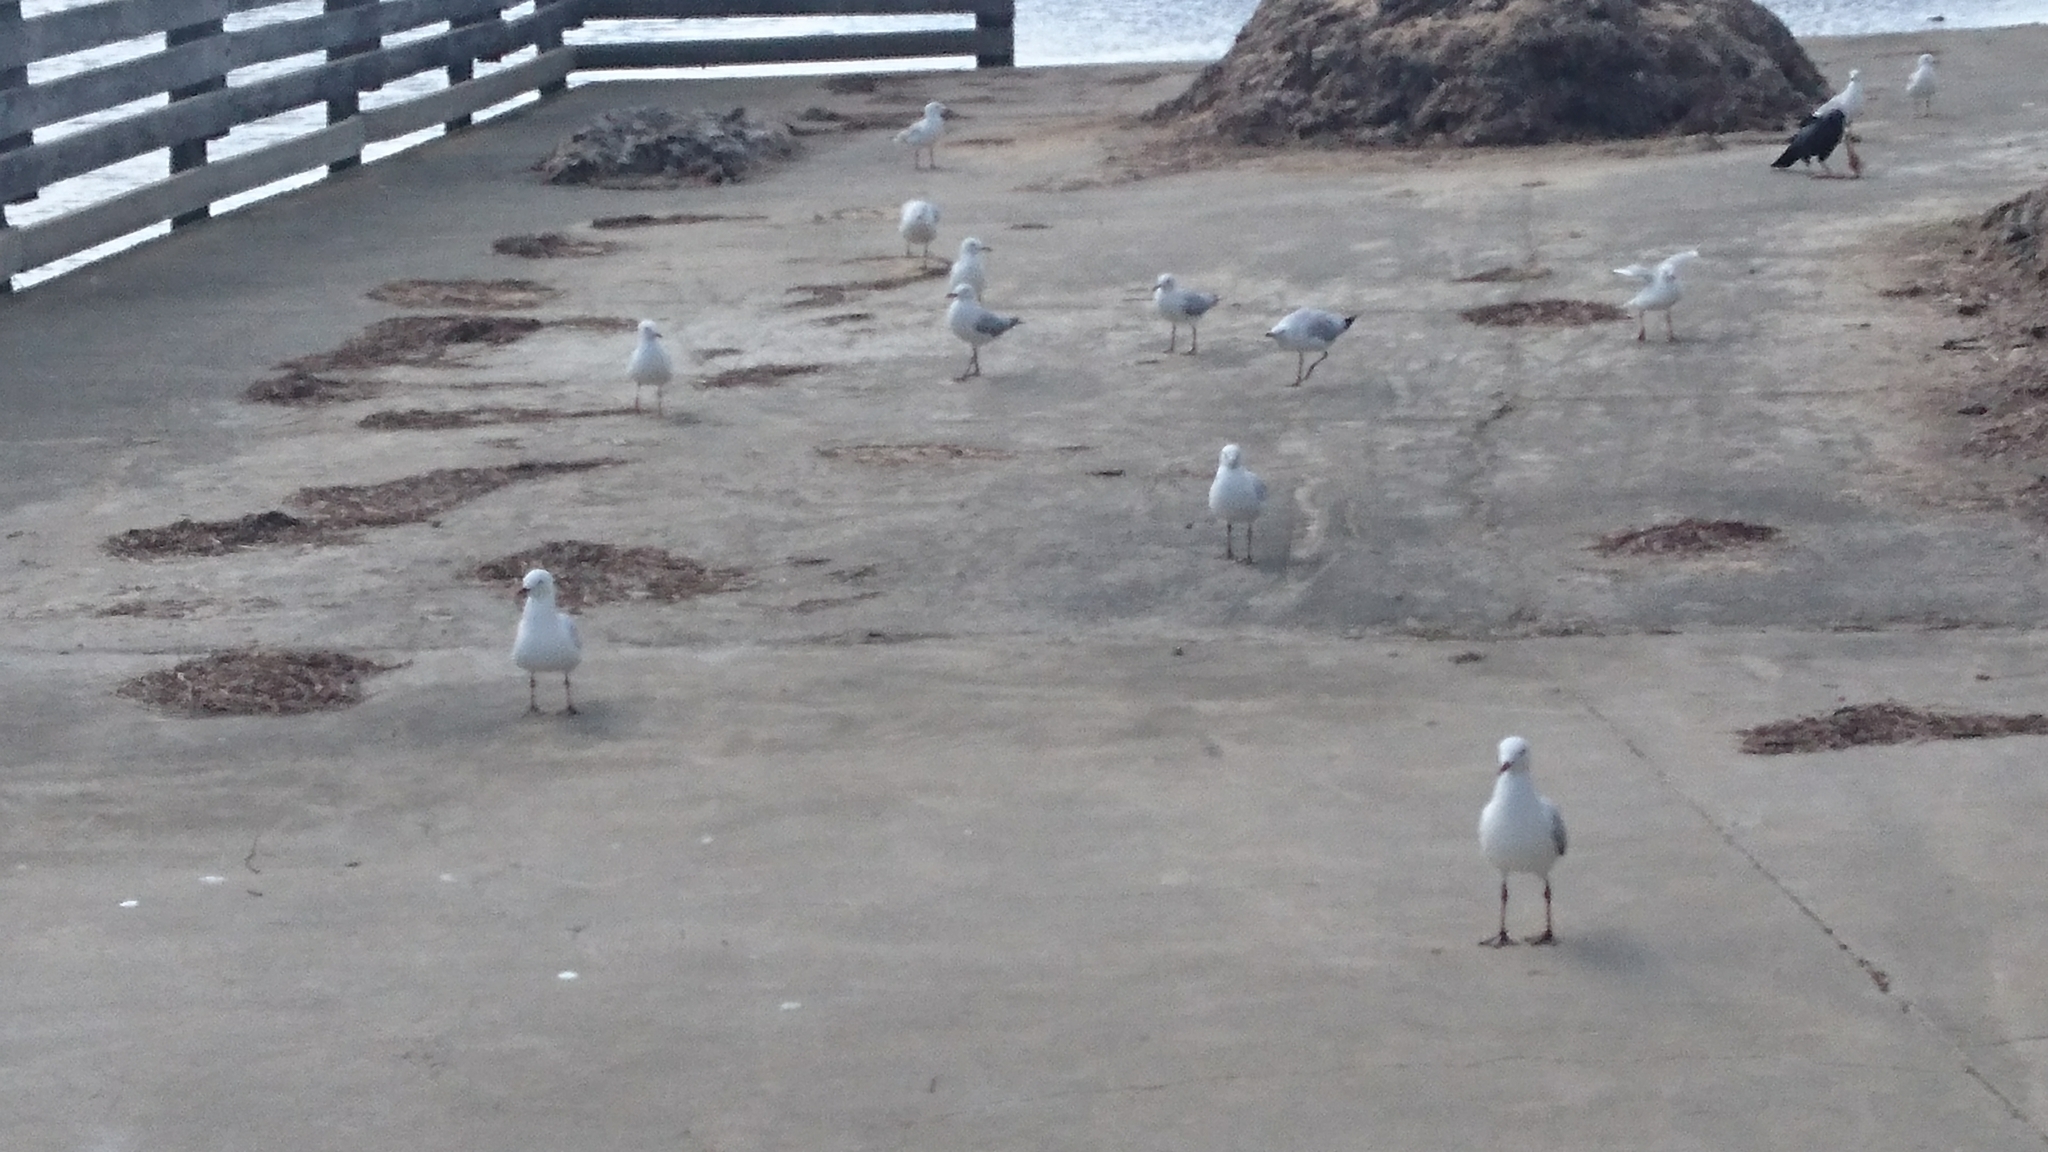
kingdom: Animalia
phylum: Chordata
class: Aves
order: Charadriiformes
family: Laridae
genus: Chroicocephalus
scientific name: Chroicocephalus novaehollandiae
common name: Silver gull
